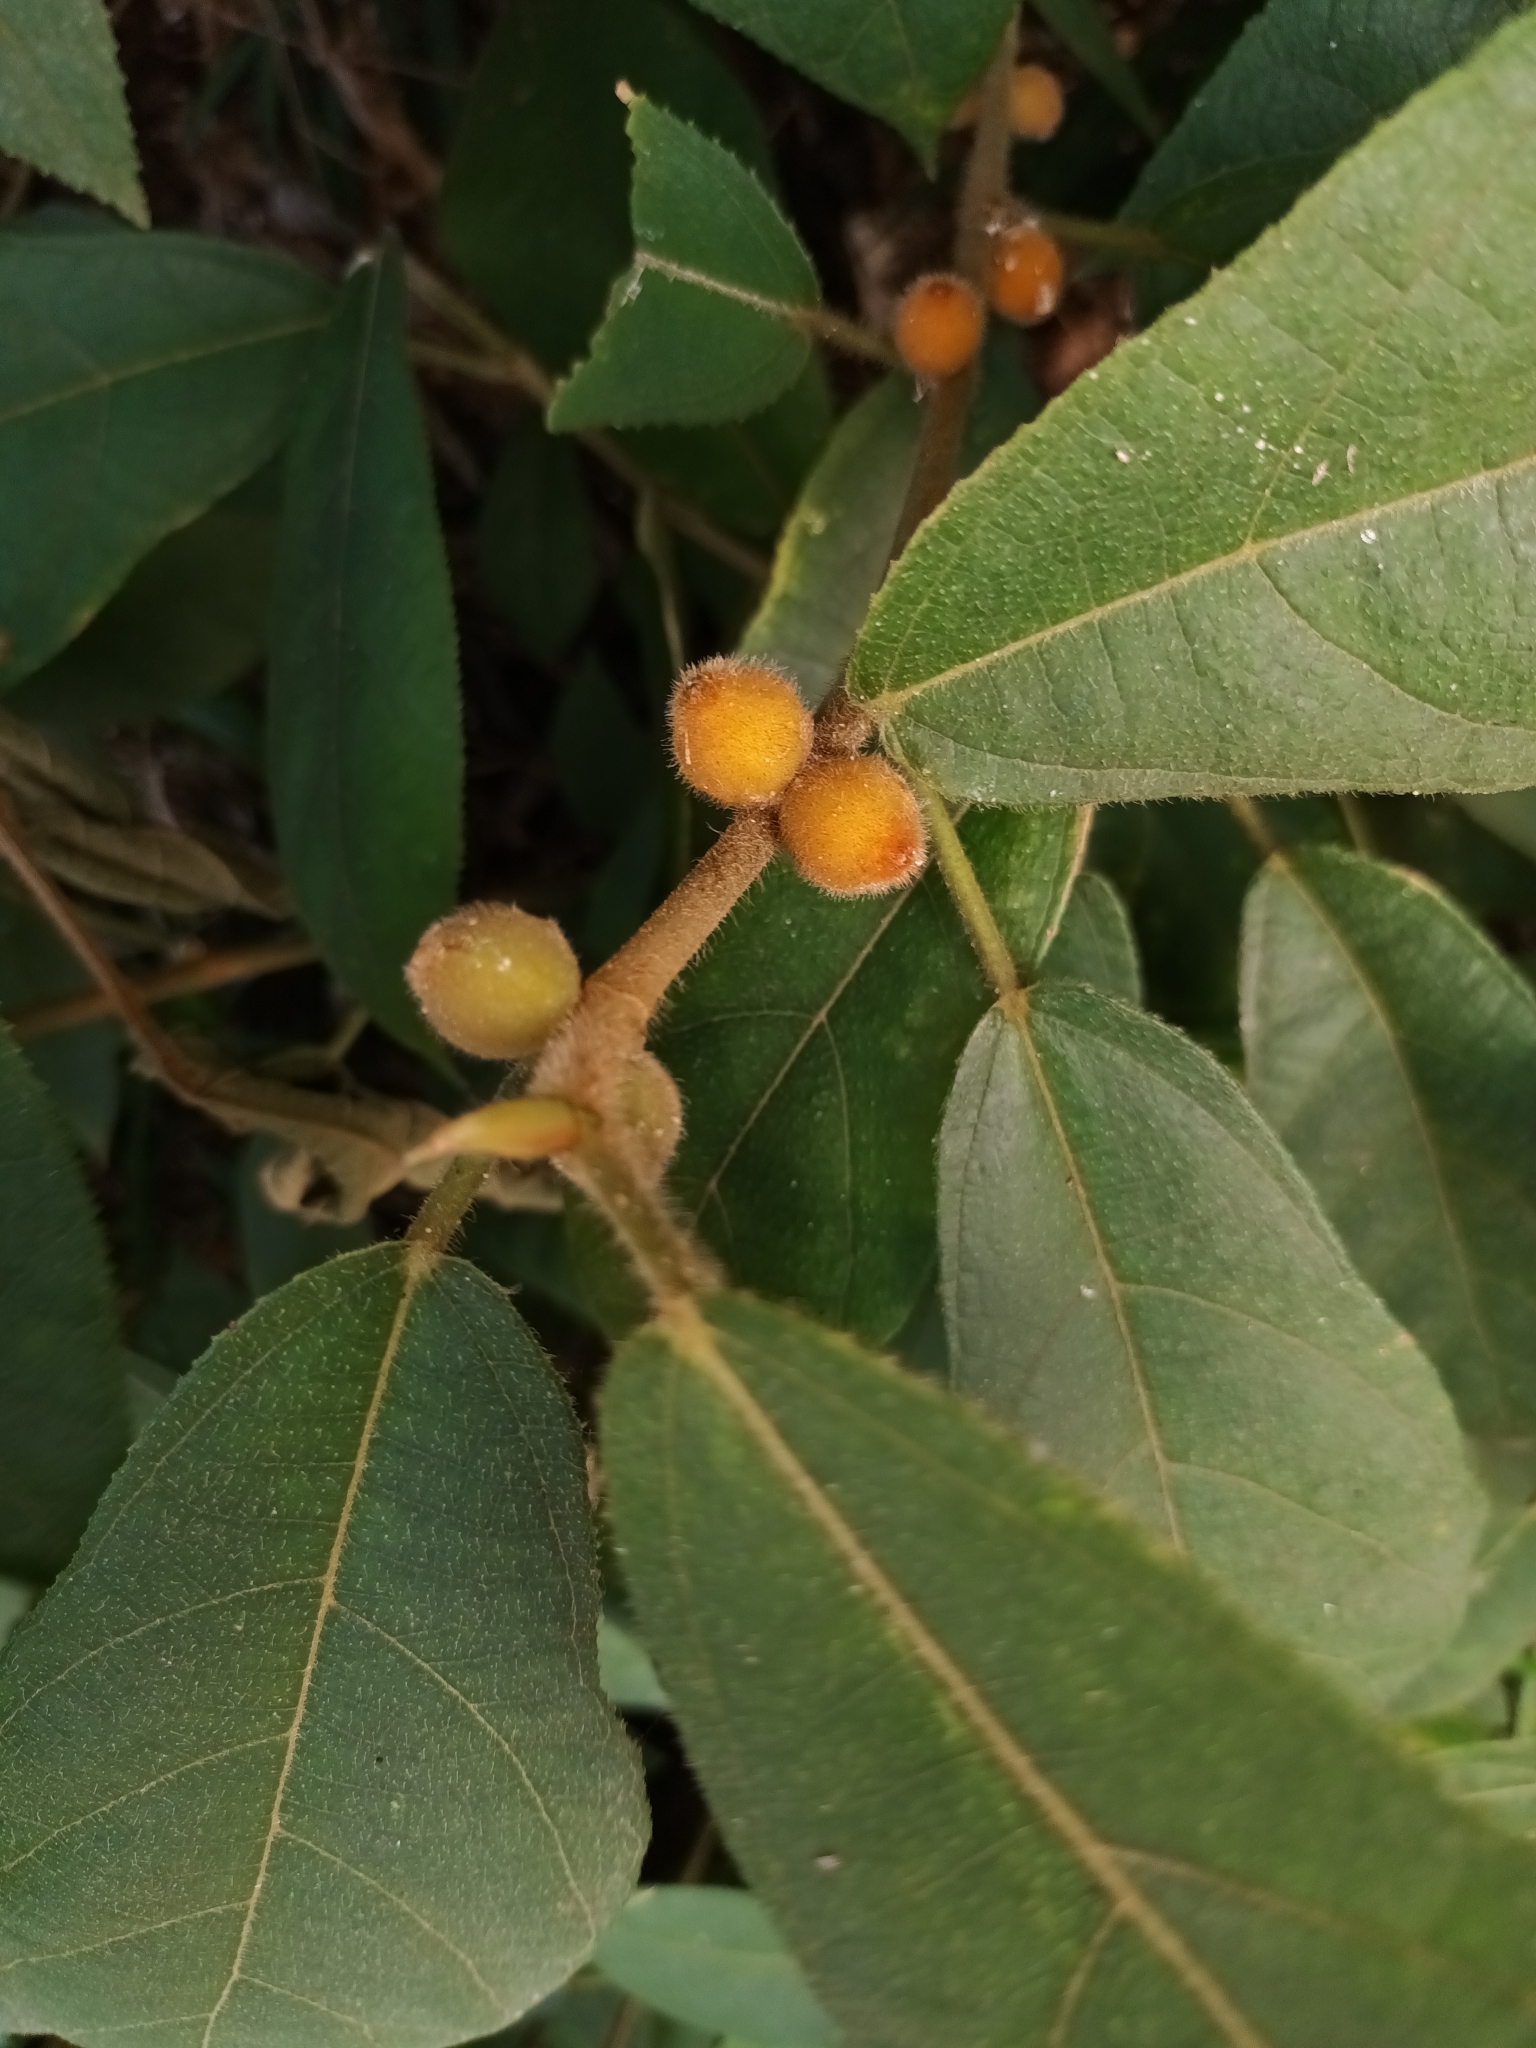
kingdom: Plantae
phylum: Tracheophyta
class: Magnoliopsida
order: Rosales
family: Moraceae
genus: Ficus
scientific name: Ficus aurata
